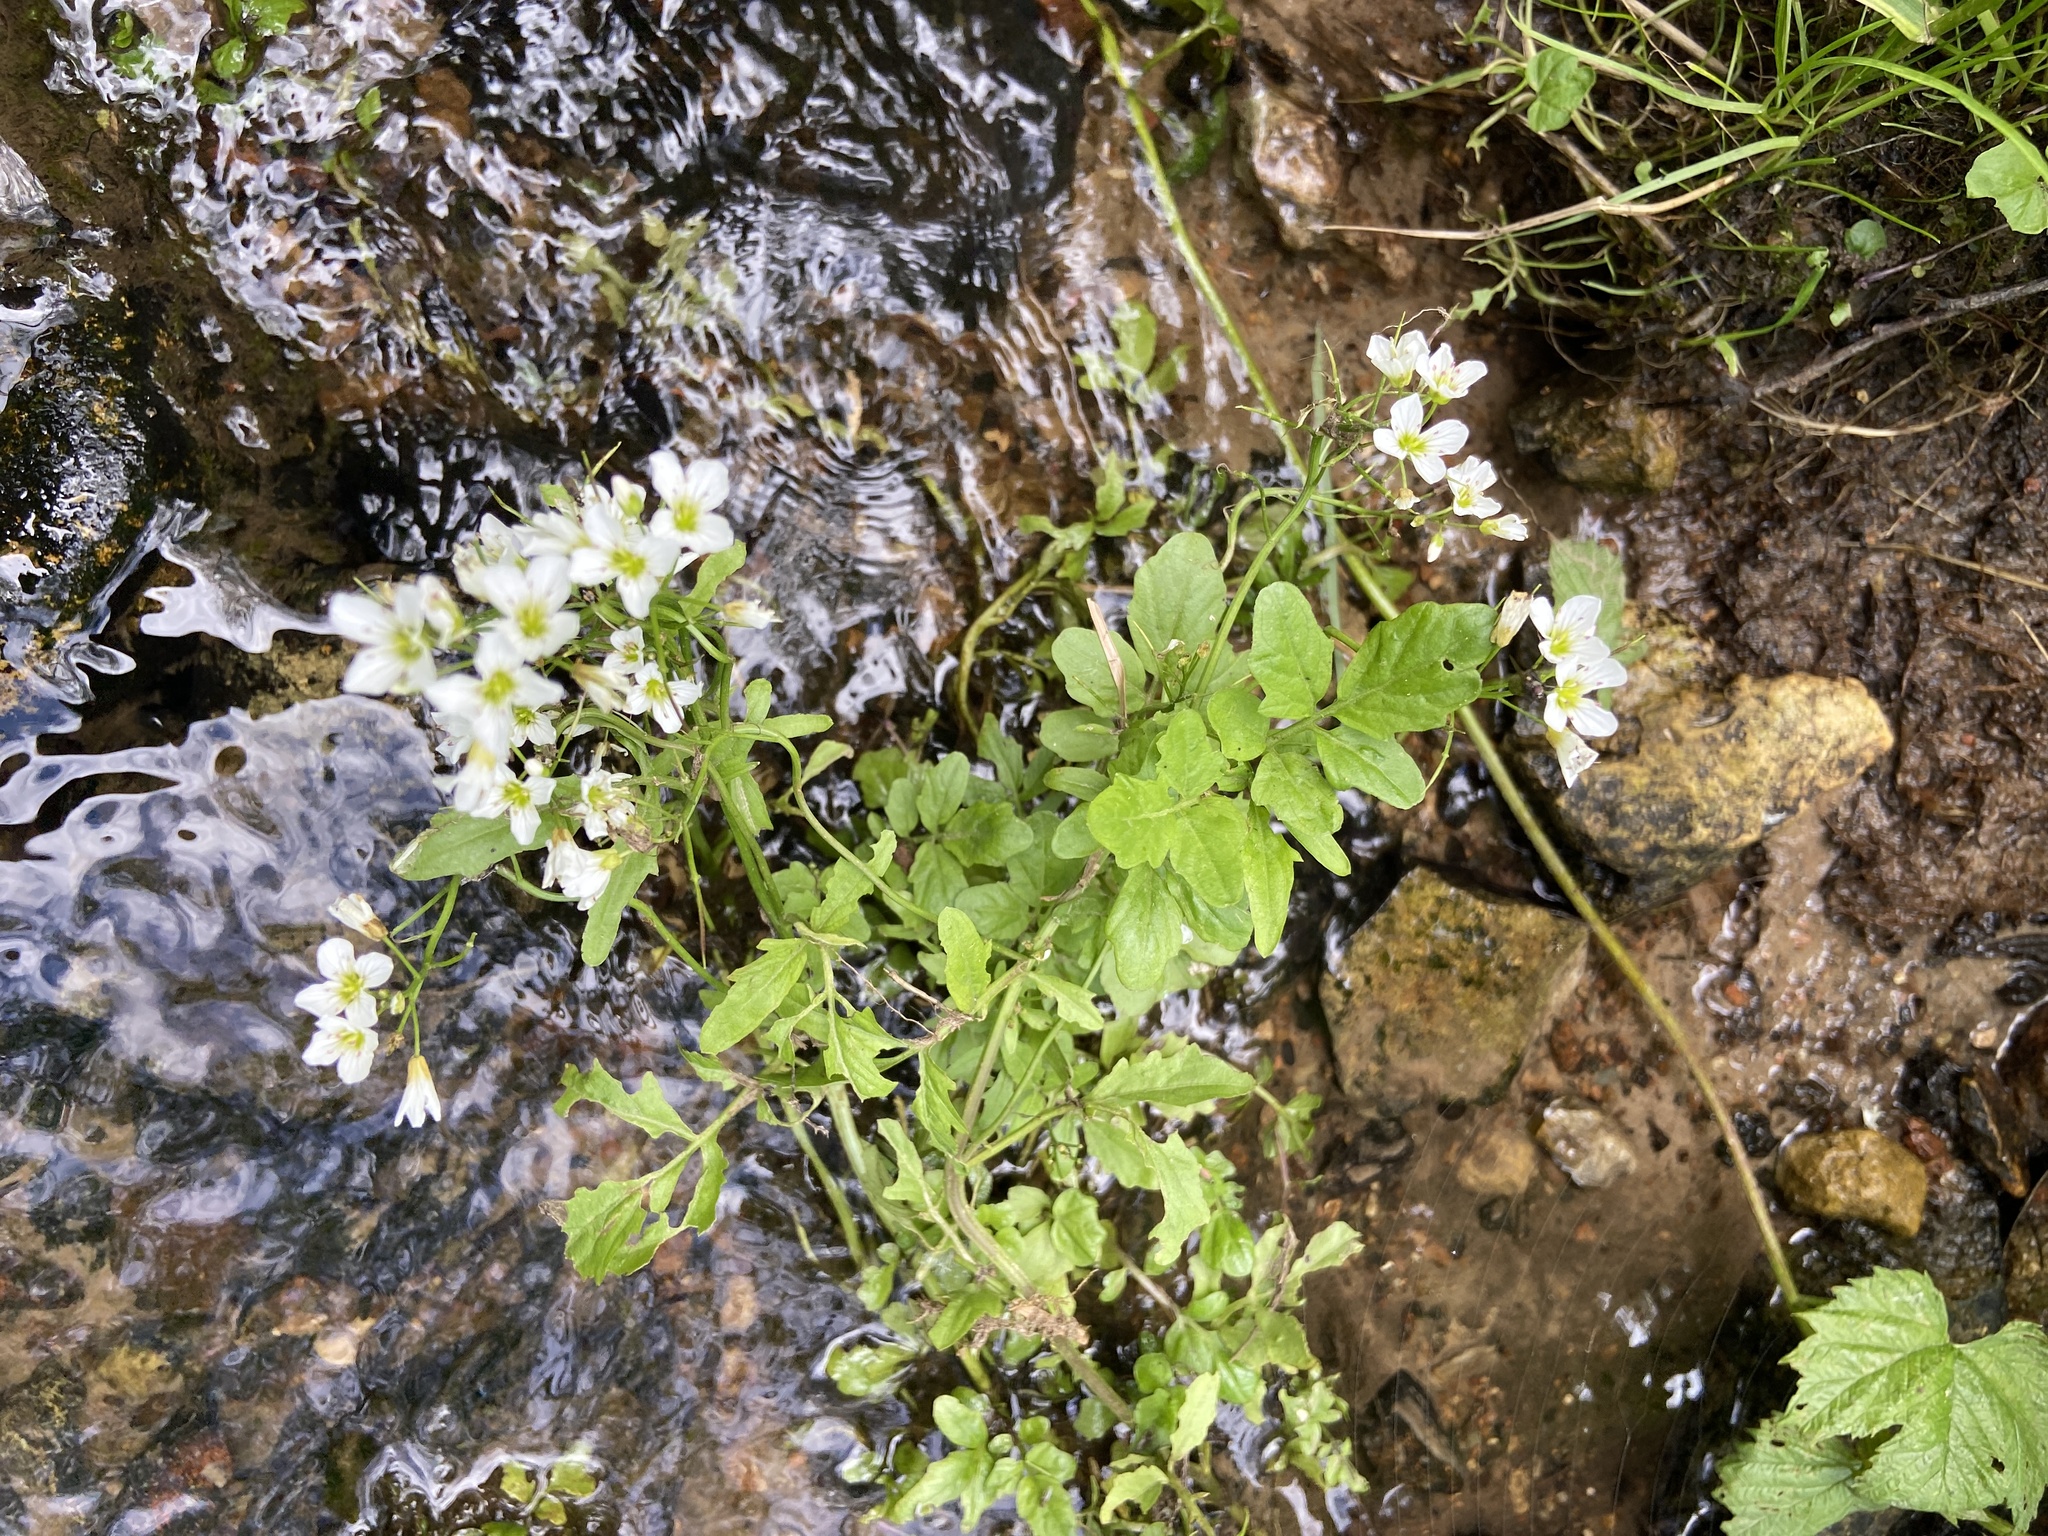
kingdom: Plantae
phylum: Tracheophyta
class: Magnoliopsida
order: Brassicales
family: Brassicaceae
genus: Cardamine
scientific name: Cardamine amara
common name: Large bitter-cress
